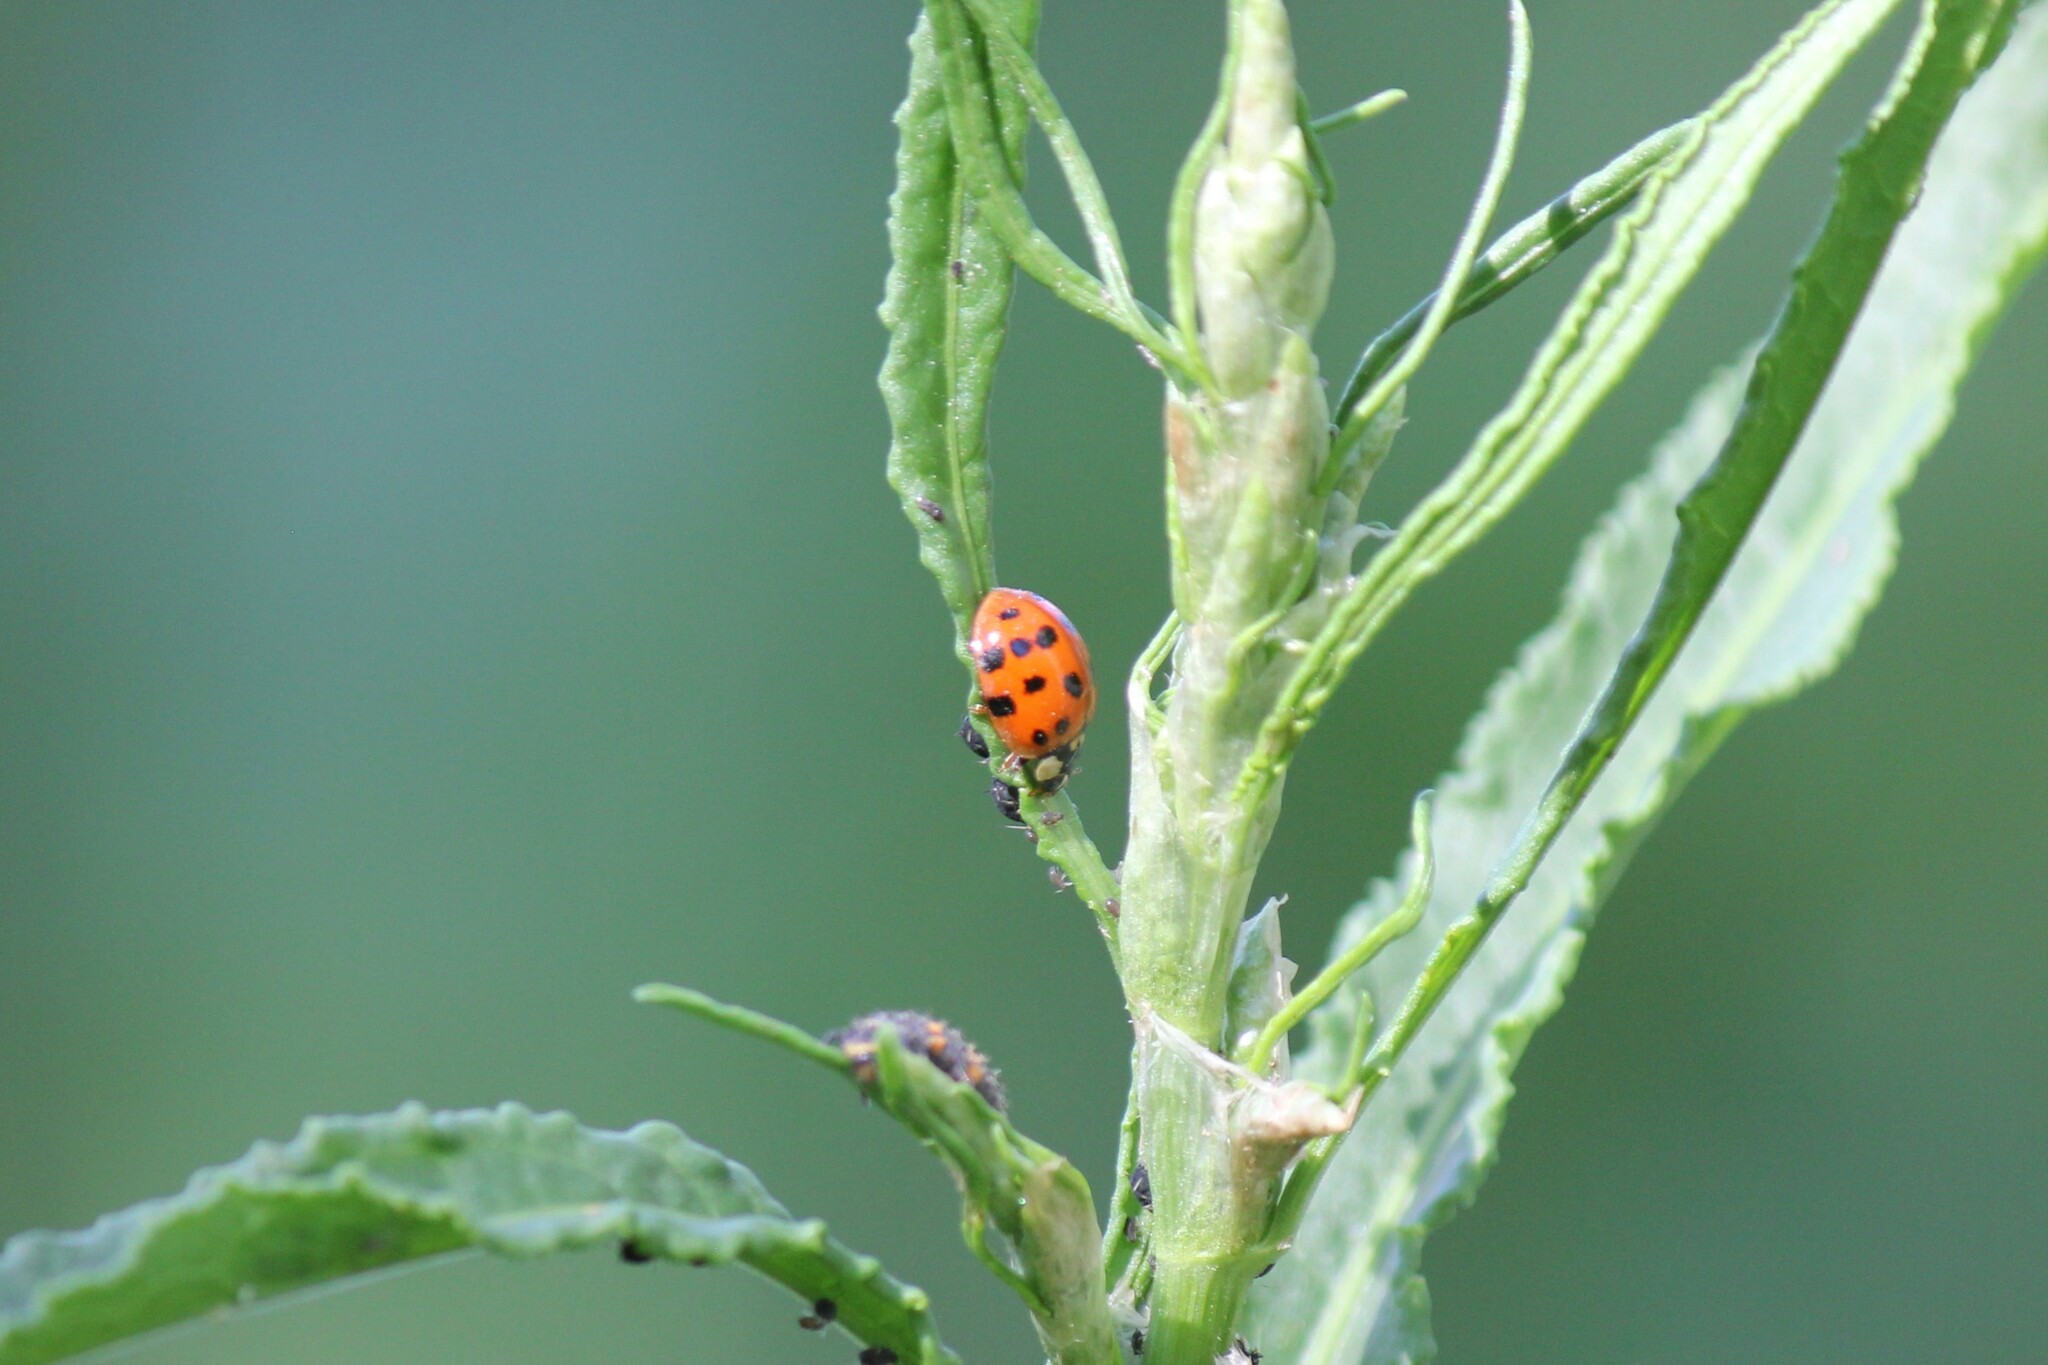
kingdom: Animalia
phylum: Arthropoda
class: Insecta
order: Coleoptera
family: Coccinellidae
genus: Harmonia
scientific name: Harmonia axyridis
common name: Harlequin ladybird
